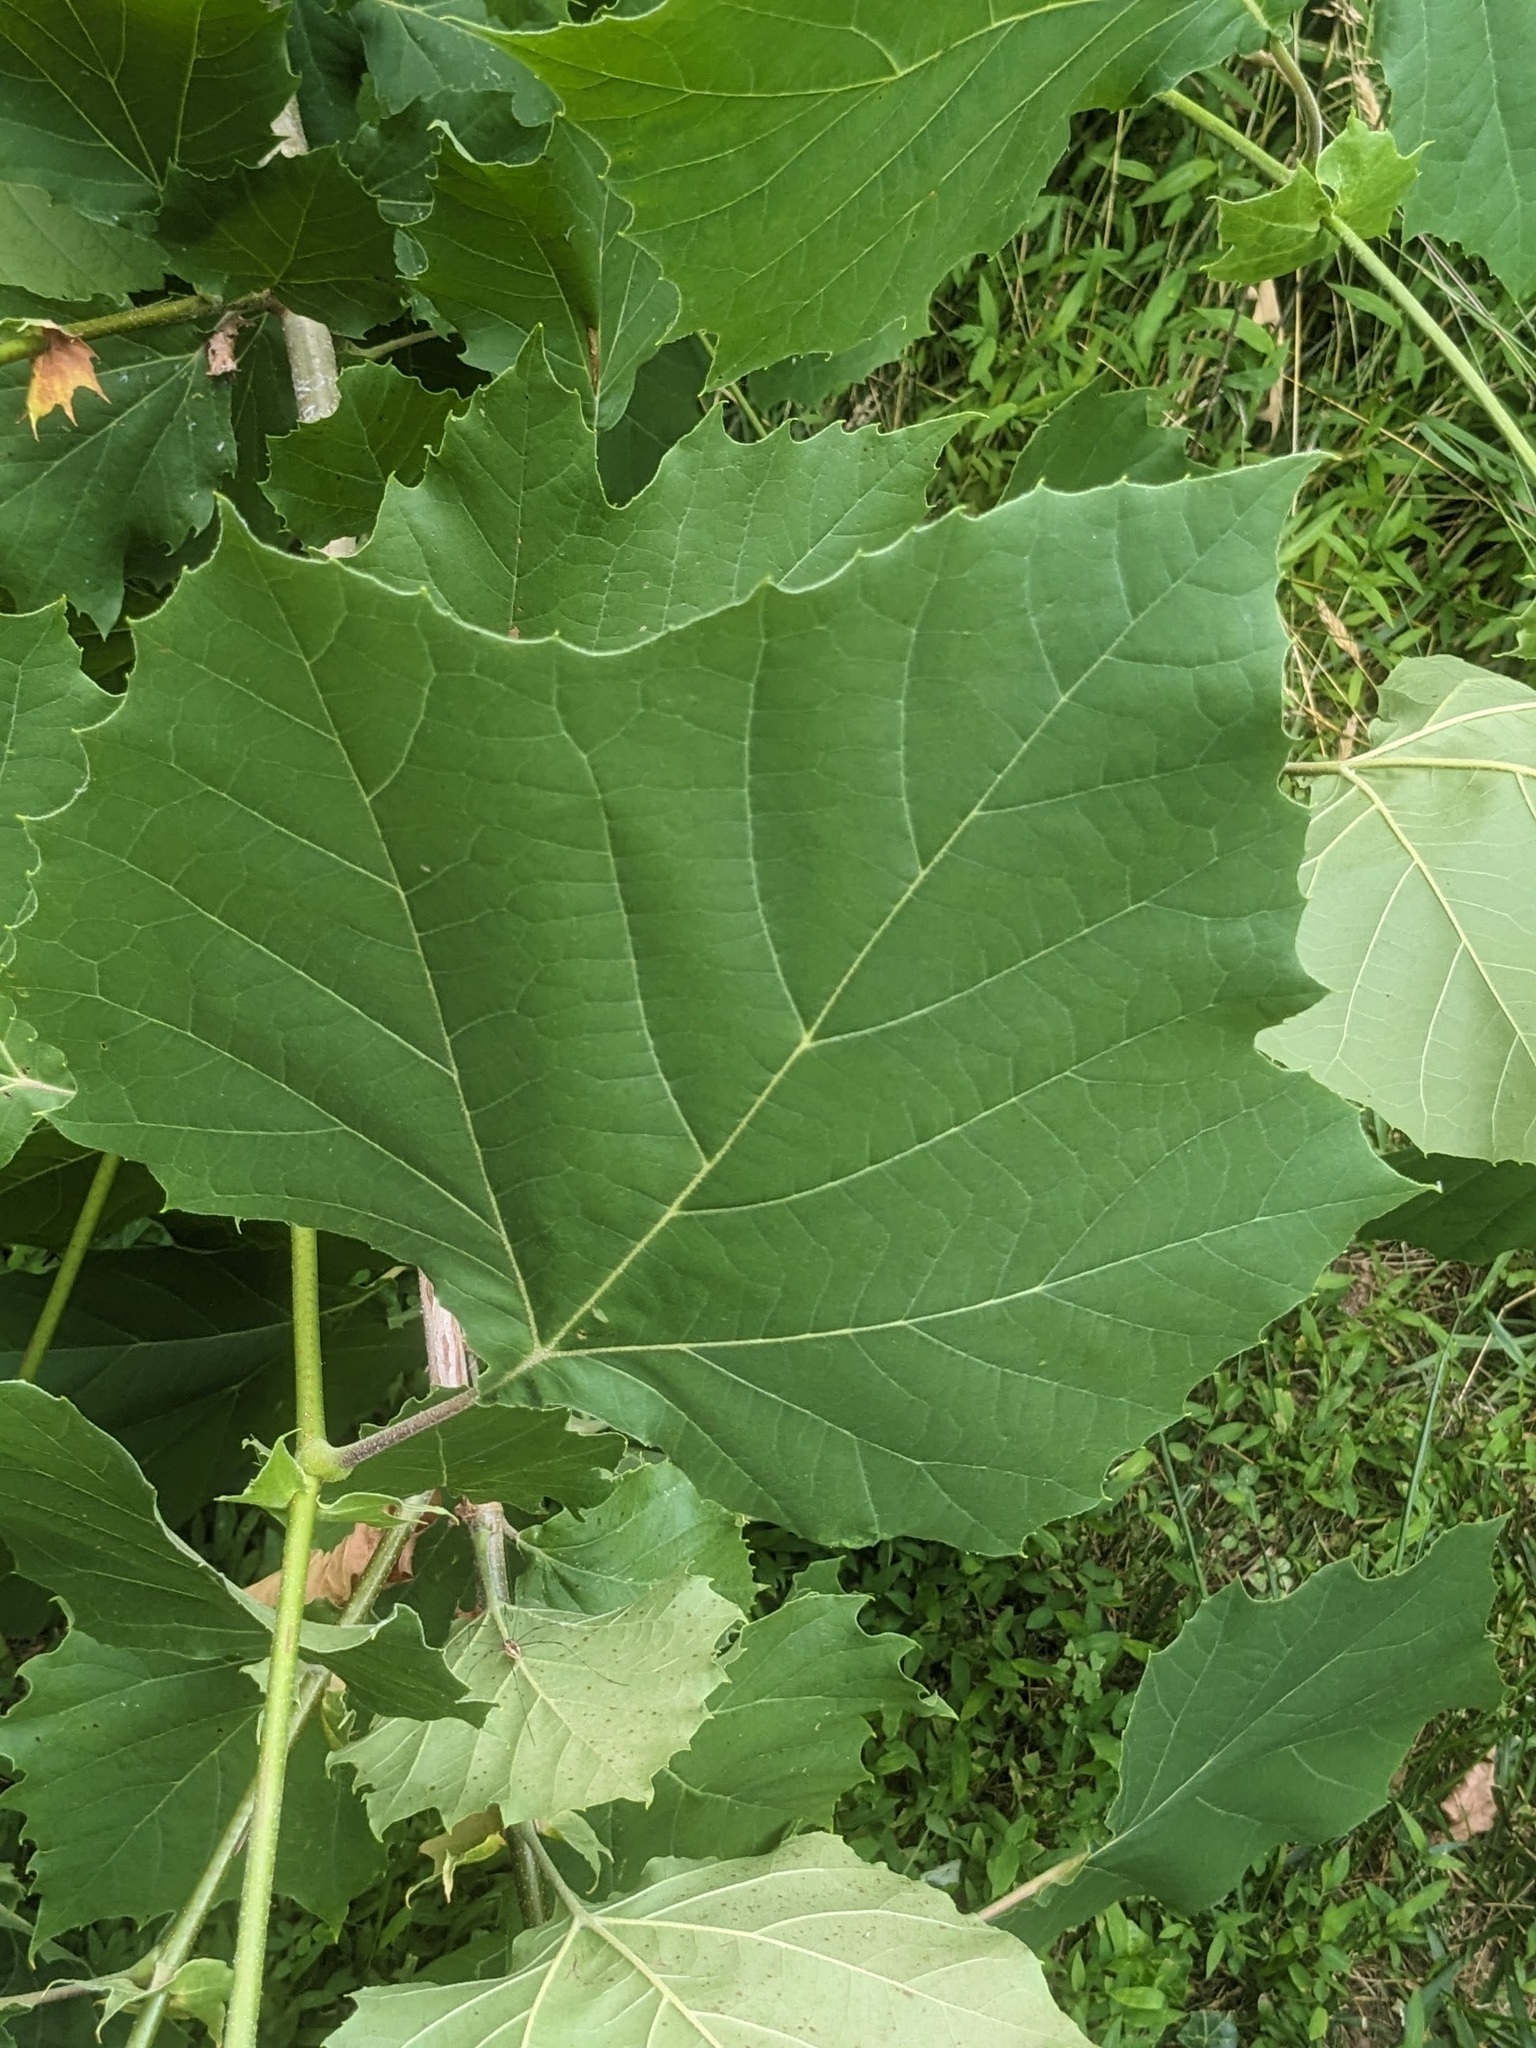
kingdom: Plantae
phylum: Tracheophyta
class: Magnoliopsida
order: Proteales
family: Platanaceae
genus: Platanus
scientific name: Platanus occidentalis
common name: American sycamore
